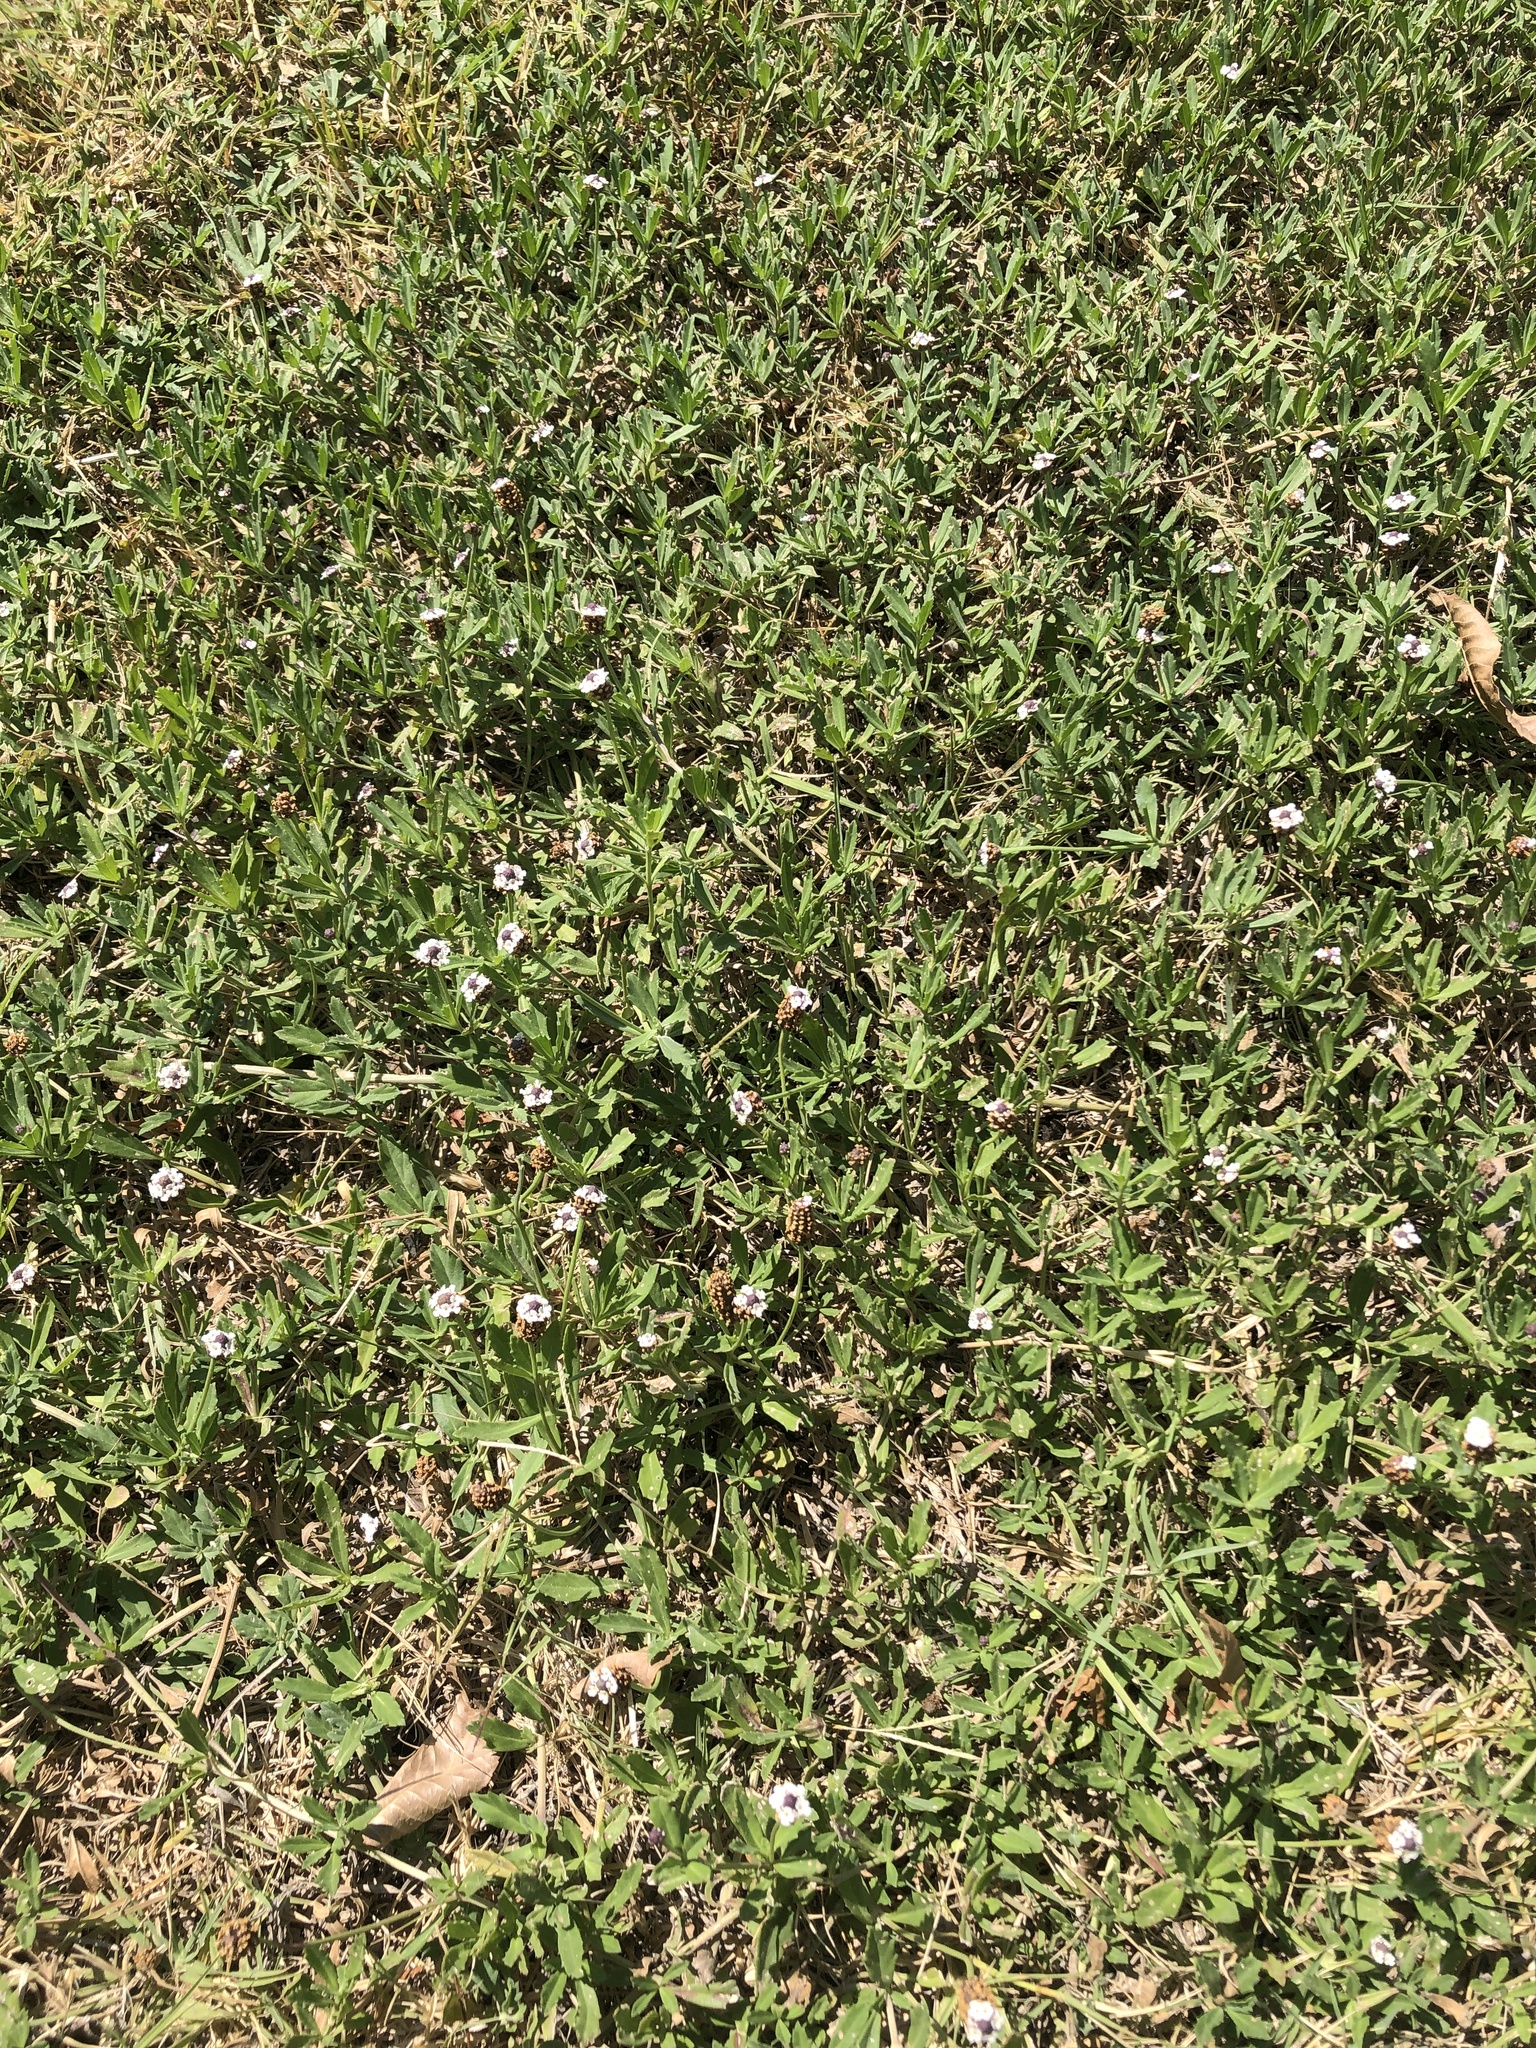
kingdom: Plantae
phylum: Tracheophyta
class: Magnoliopsida
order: Lamiales
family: Verbenaceae
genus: Phyla
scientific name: Phyla nodiflora
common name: Frogfruit
